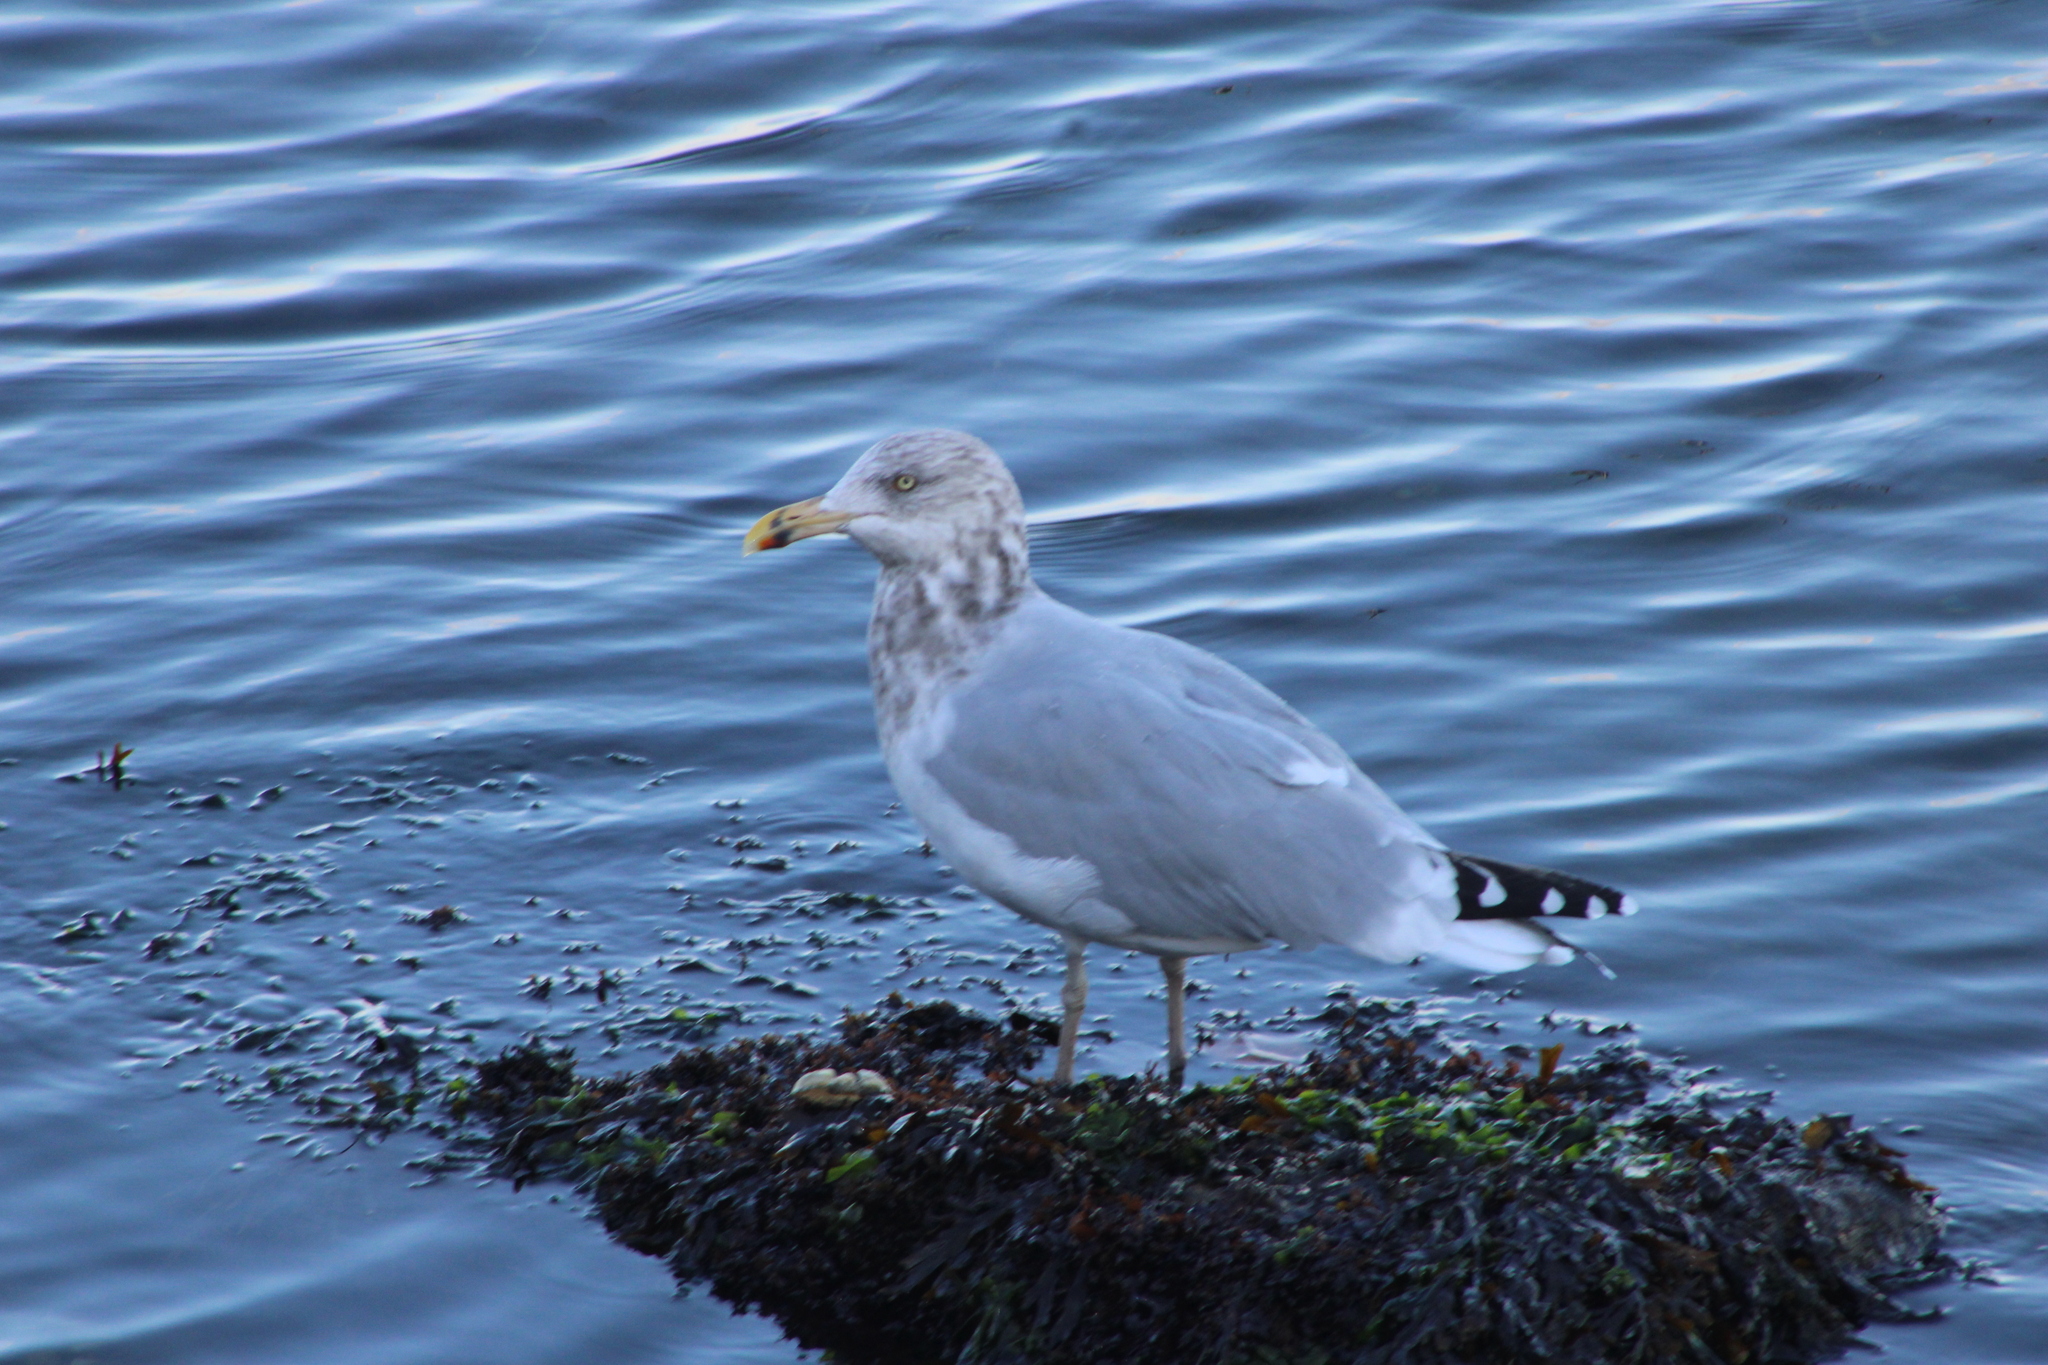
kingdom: Animalia
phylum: Chordata
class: Aves
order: Charadriiformes
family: Laridae
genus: Larus
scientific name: Larus argentatus
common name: Herring gull
